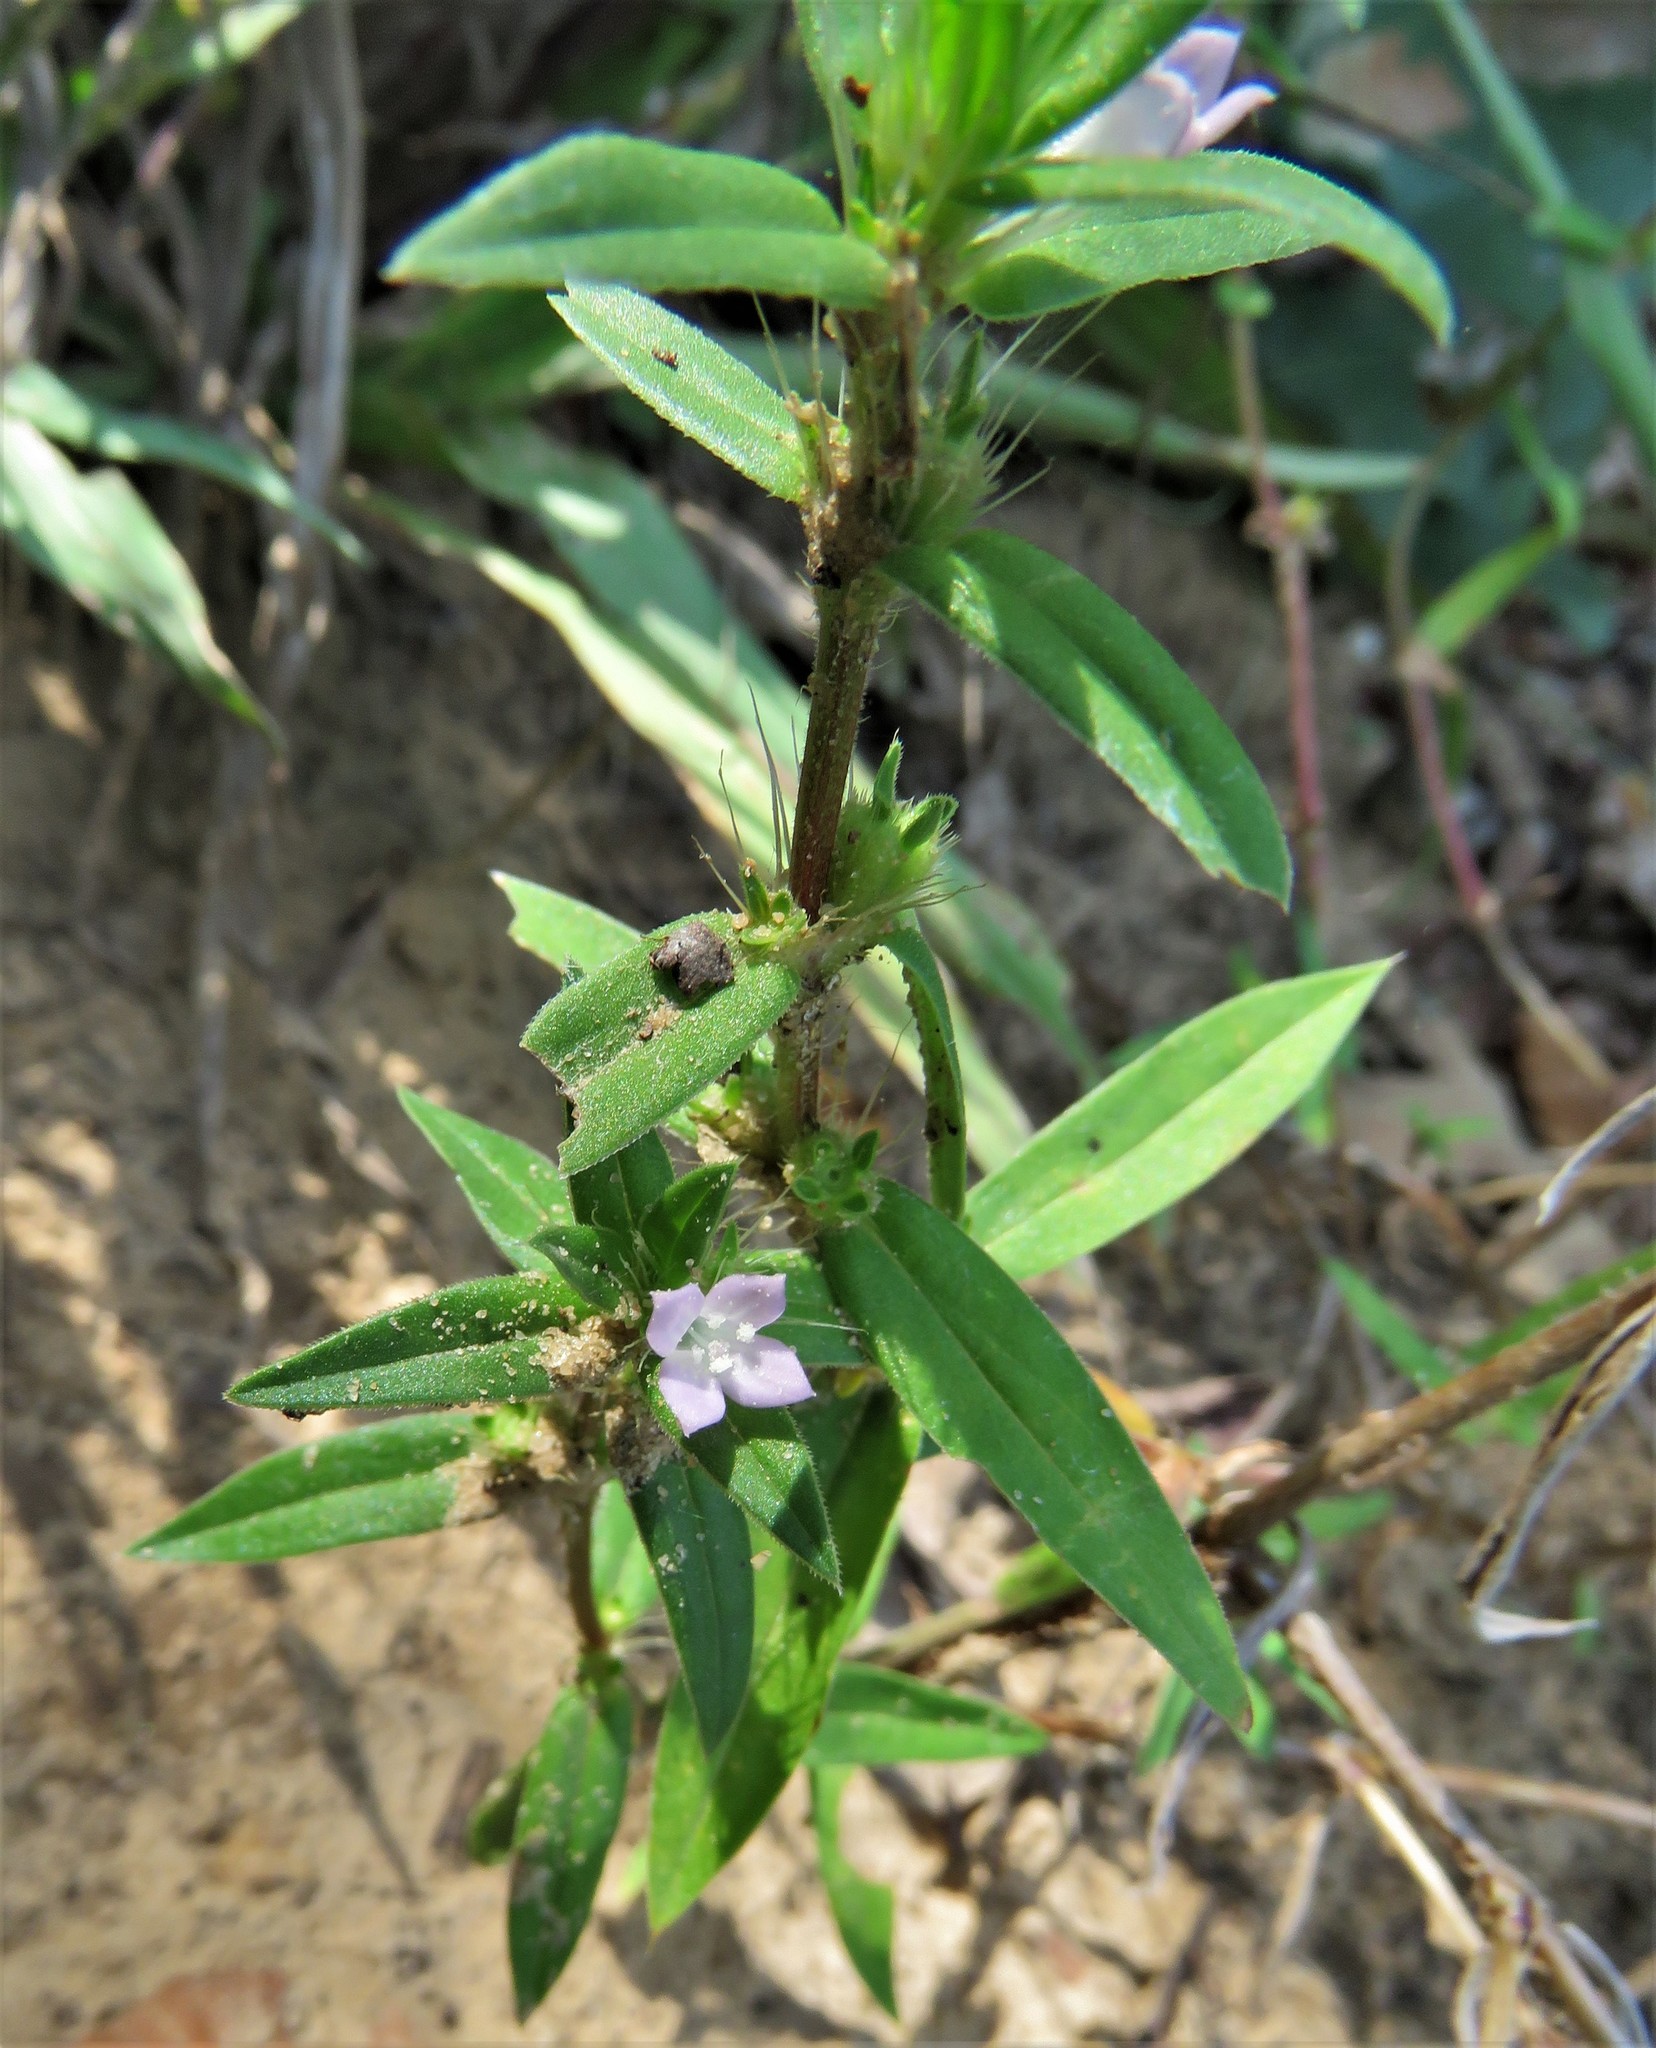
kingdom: Plantae
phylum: Tracheophyta
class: Magnoliopsida
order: Gentianales
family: Rubiaceae
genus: Hexasepalum
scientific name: Hexasepalum teres
